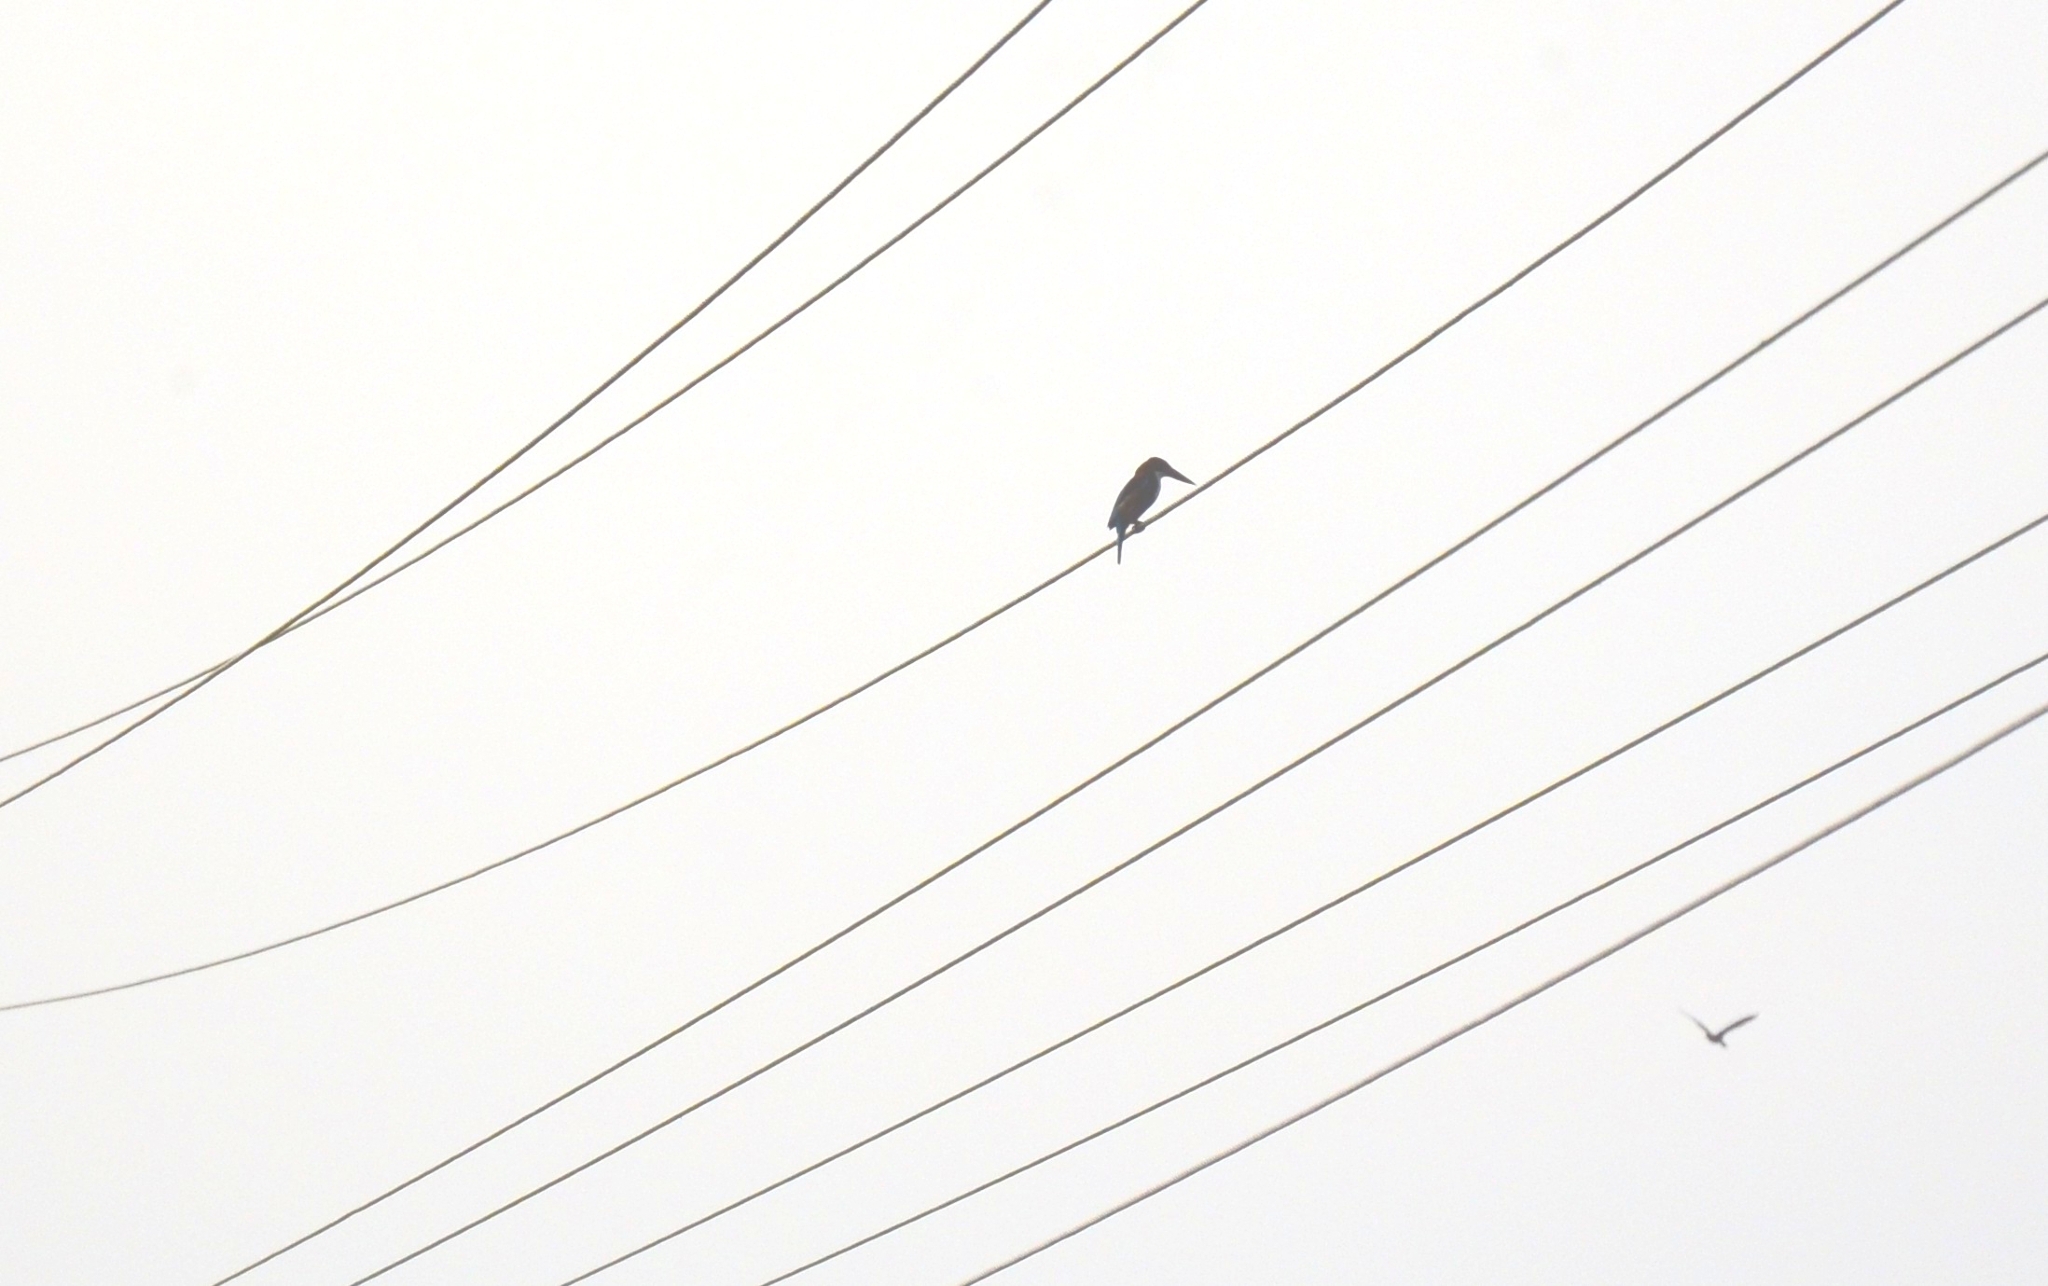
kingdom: Animalia
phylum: Chordata
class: Aves
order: Coraciiformes
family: Alcedinidae
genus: Halcyon
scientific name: Halcyon smyrnensis
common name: White-throated kingfisher
